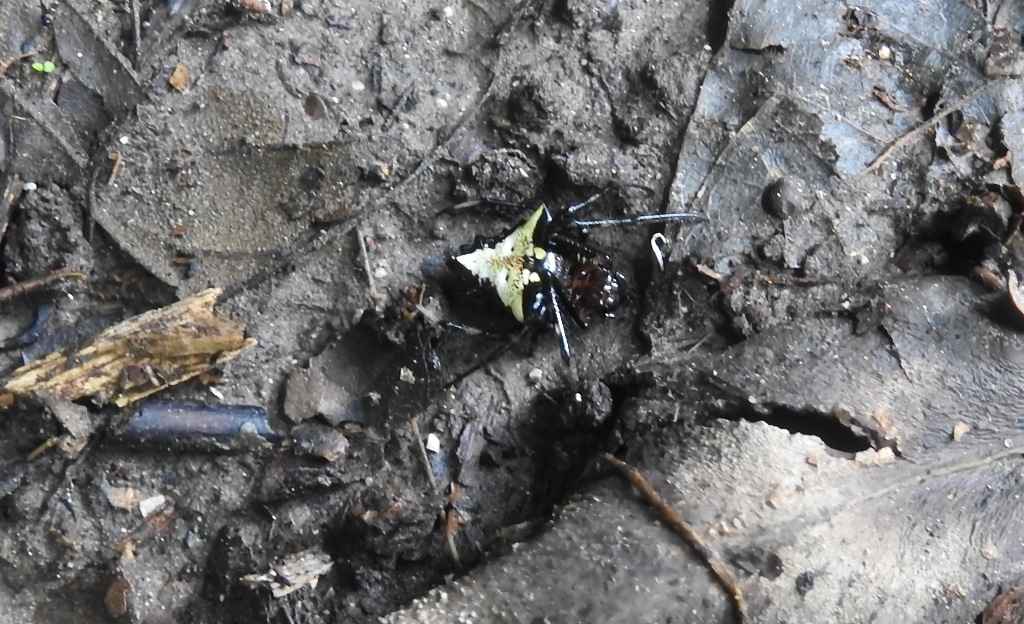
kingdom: Animalia
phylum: Arthropoda
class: Arachnida
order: Araneae
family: Araneidae
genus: Verrucosa
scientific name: Verrucosa arenata
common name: Orb weavers
